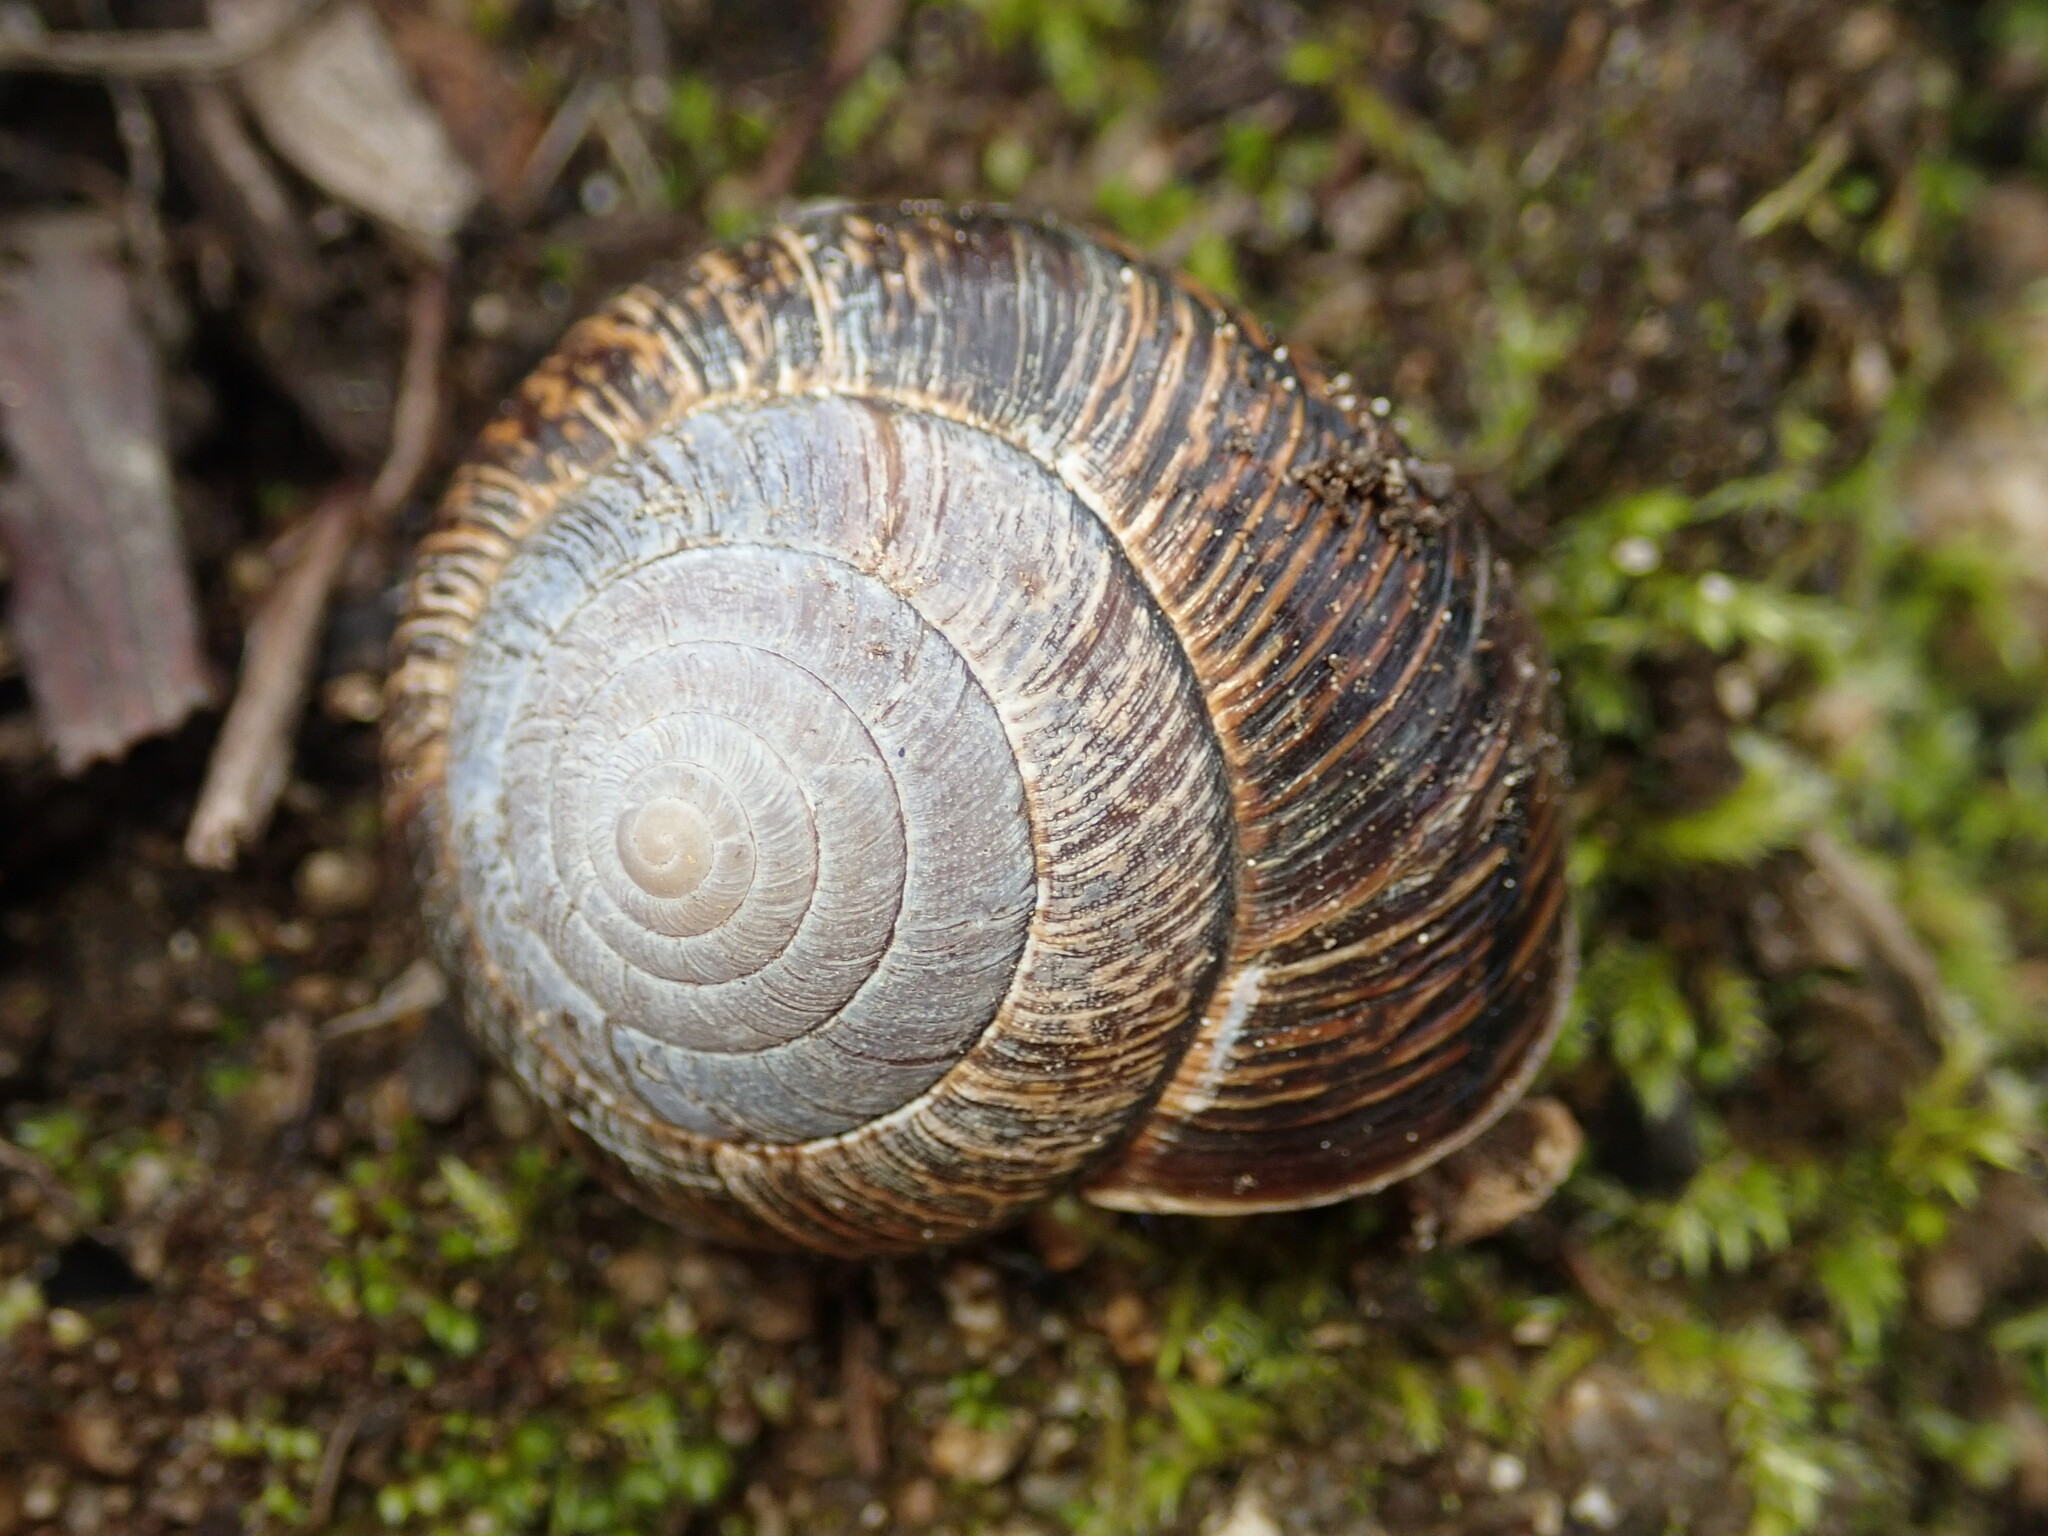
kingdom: Animalia
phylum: Mollusca
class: Gastropoda
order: Stylommatophora
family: Xanthonychidae
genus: Helminthoglypta
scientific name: Helminthoglypta arrosa
